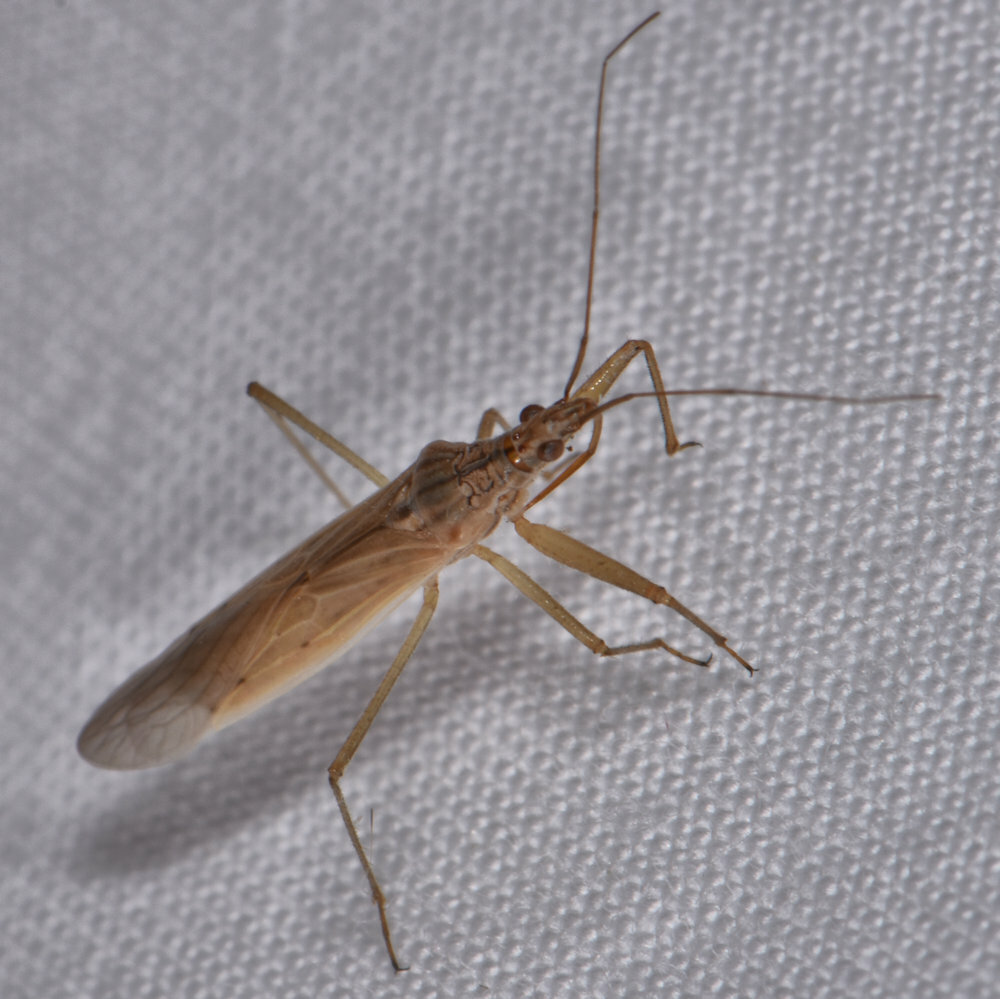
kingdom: Animalia
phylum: Arthropoda
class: Insecta
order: Hemiptera
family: Nabidae
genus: Nabis
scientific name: Nabis capsiformis
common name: Pale damsel bug
